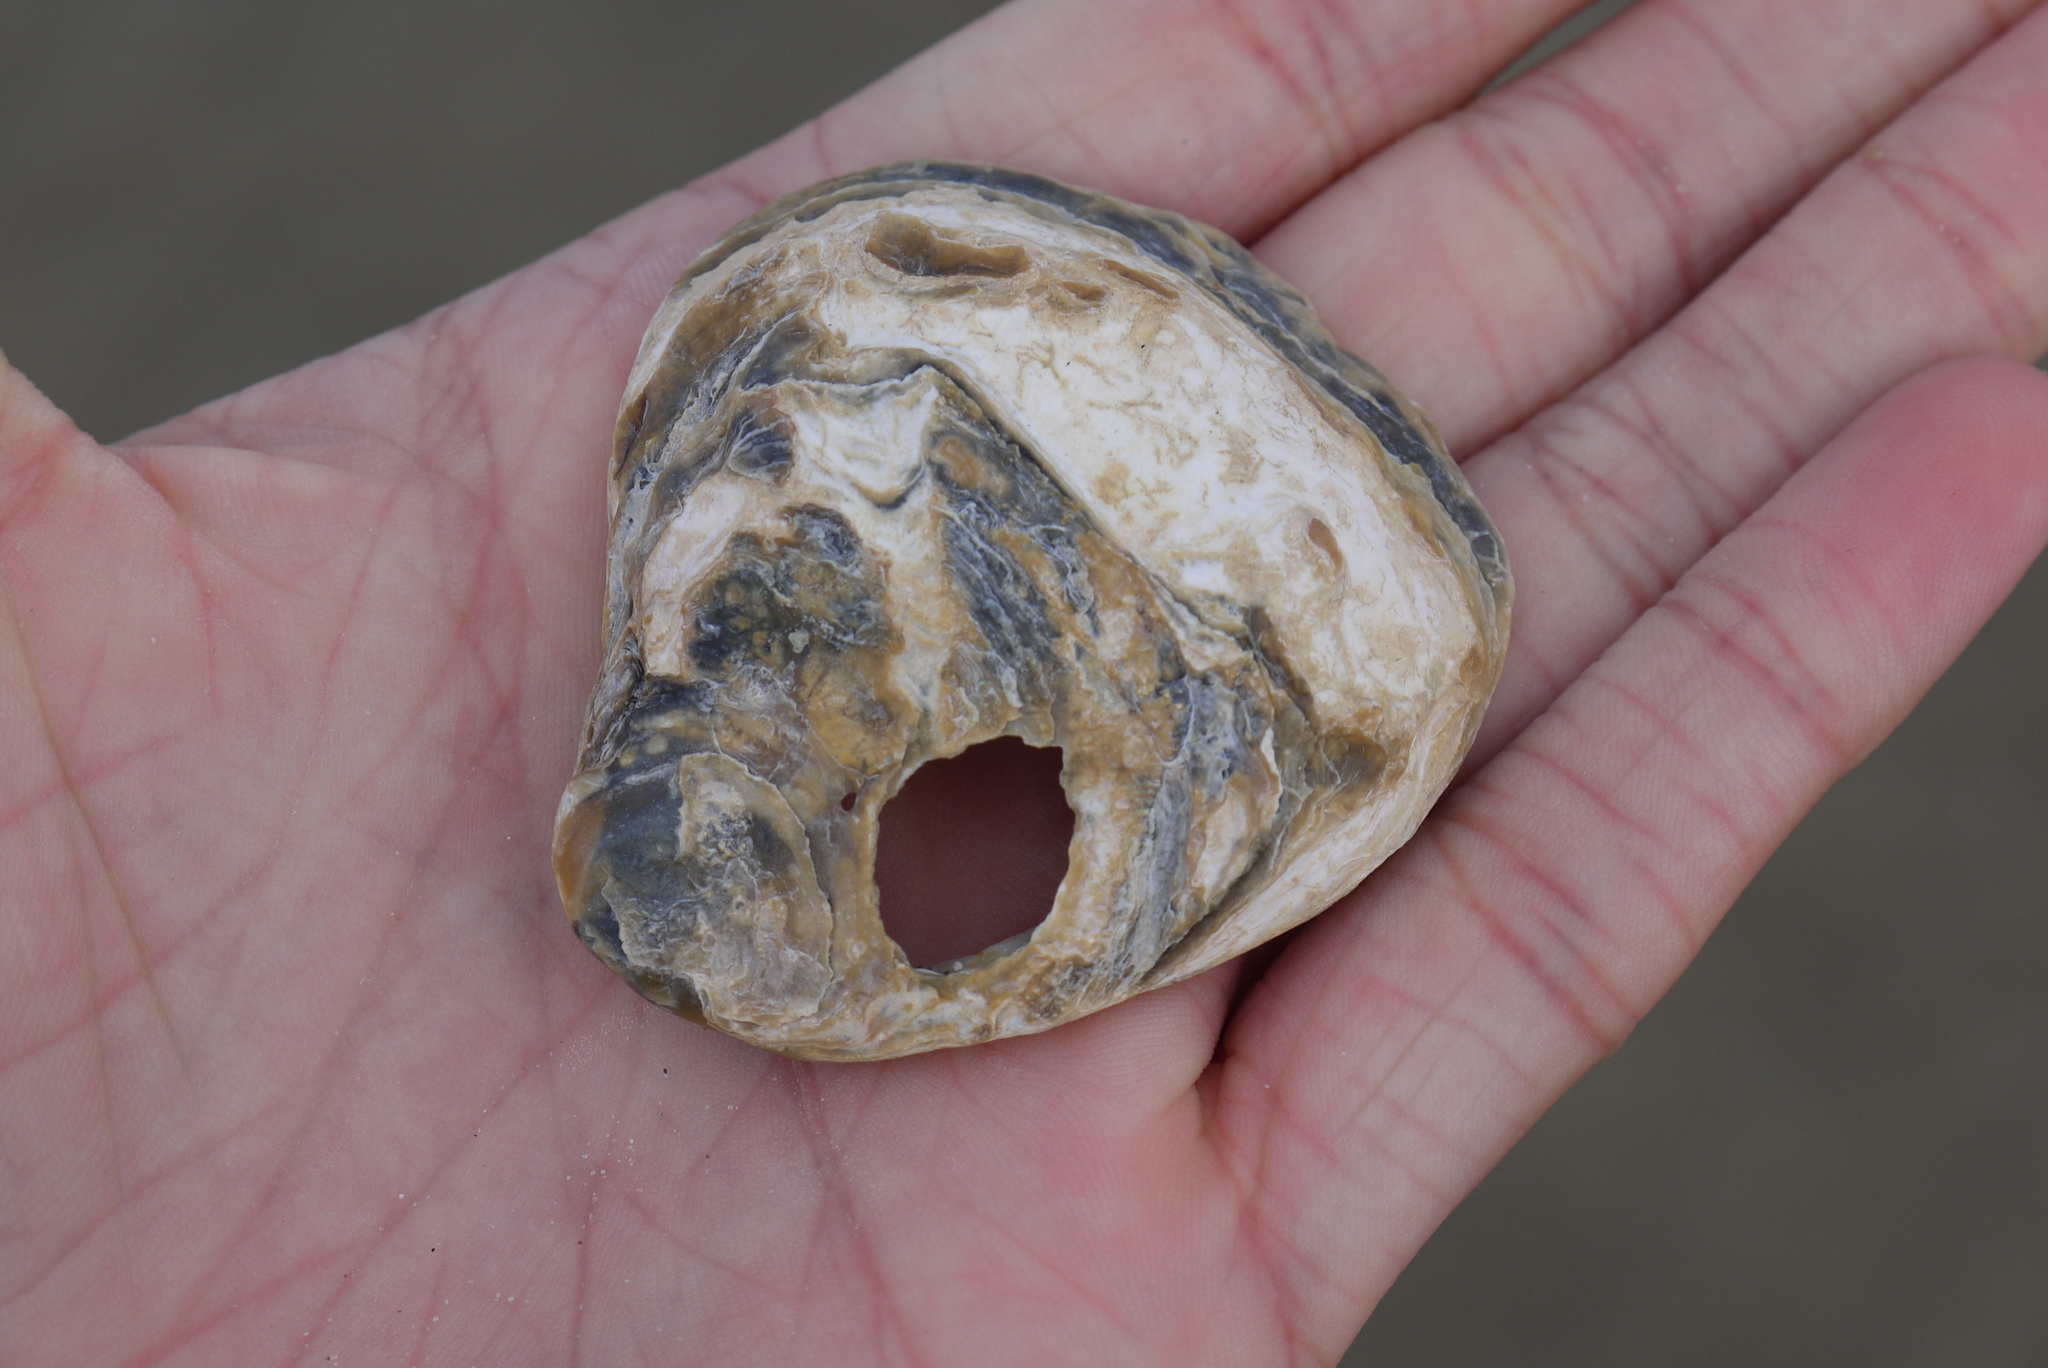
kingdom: Animalia
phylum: Mollusca
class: Bivalvia
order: Ostreida
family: Ostreidae
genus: Ostrea
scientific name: Ostrea edulis
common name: Flat oyster
